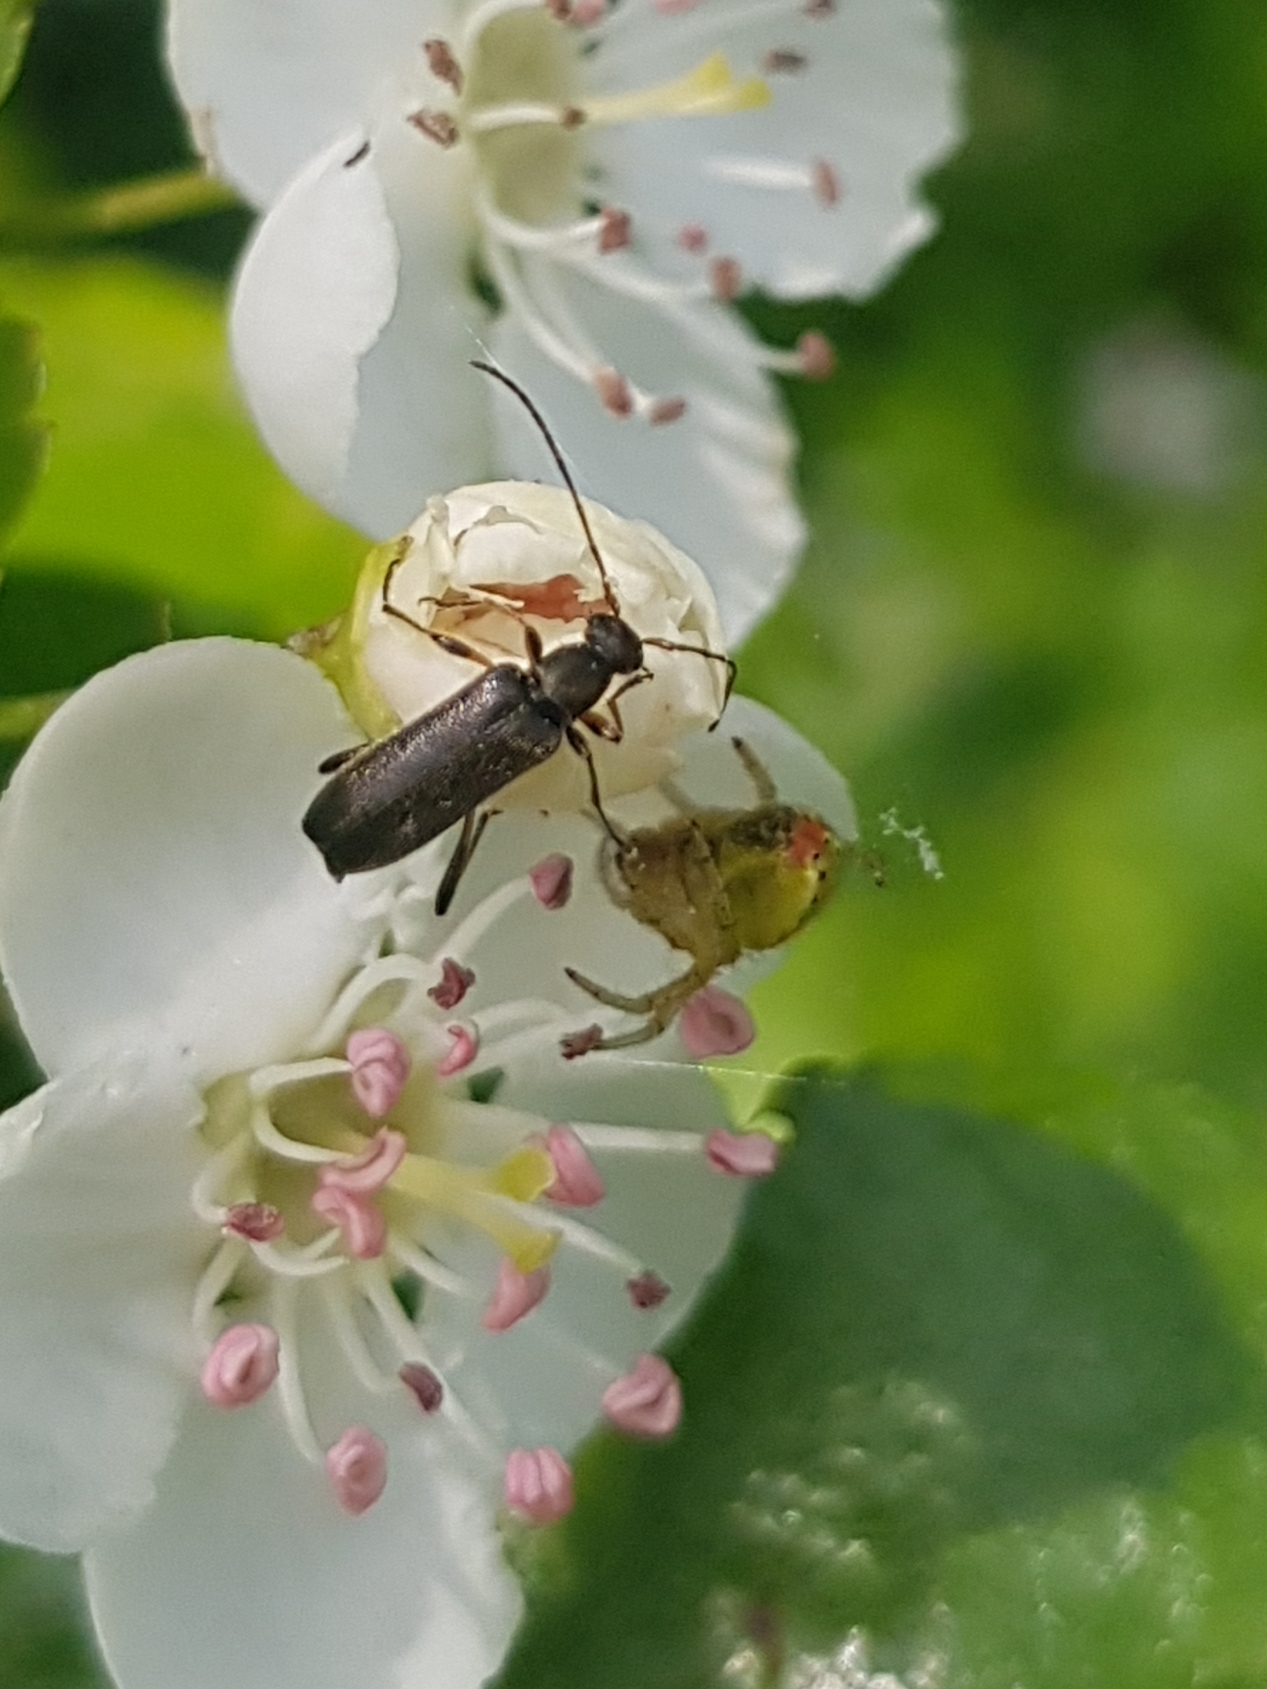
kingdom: Animalia
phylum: Arthropoda
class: Insecta
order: Coleoptera
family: Cerambycidae
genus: Grammoptera
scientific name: Grammoptera ruficornis
